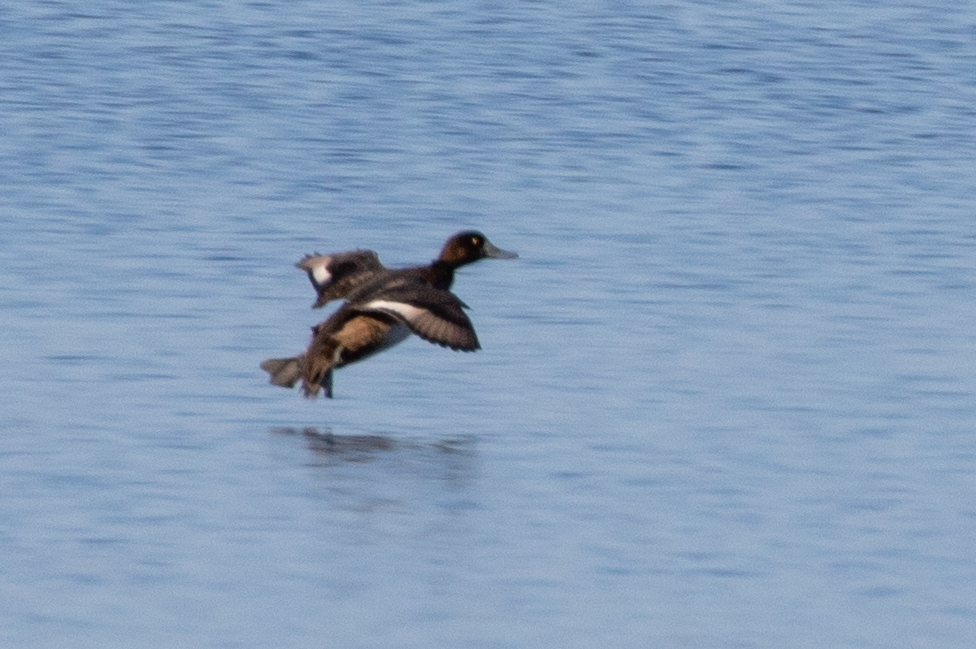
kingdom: Animalia
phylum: Chordata
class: Aves
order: Anseriformes
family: Anatidae
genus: Aythya
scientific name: Aythya affinis
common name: Lesser scaup
